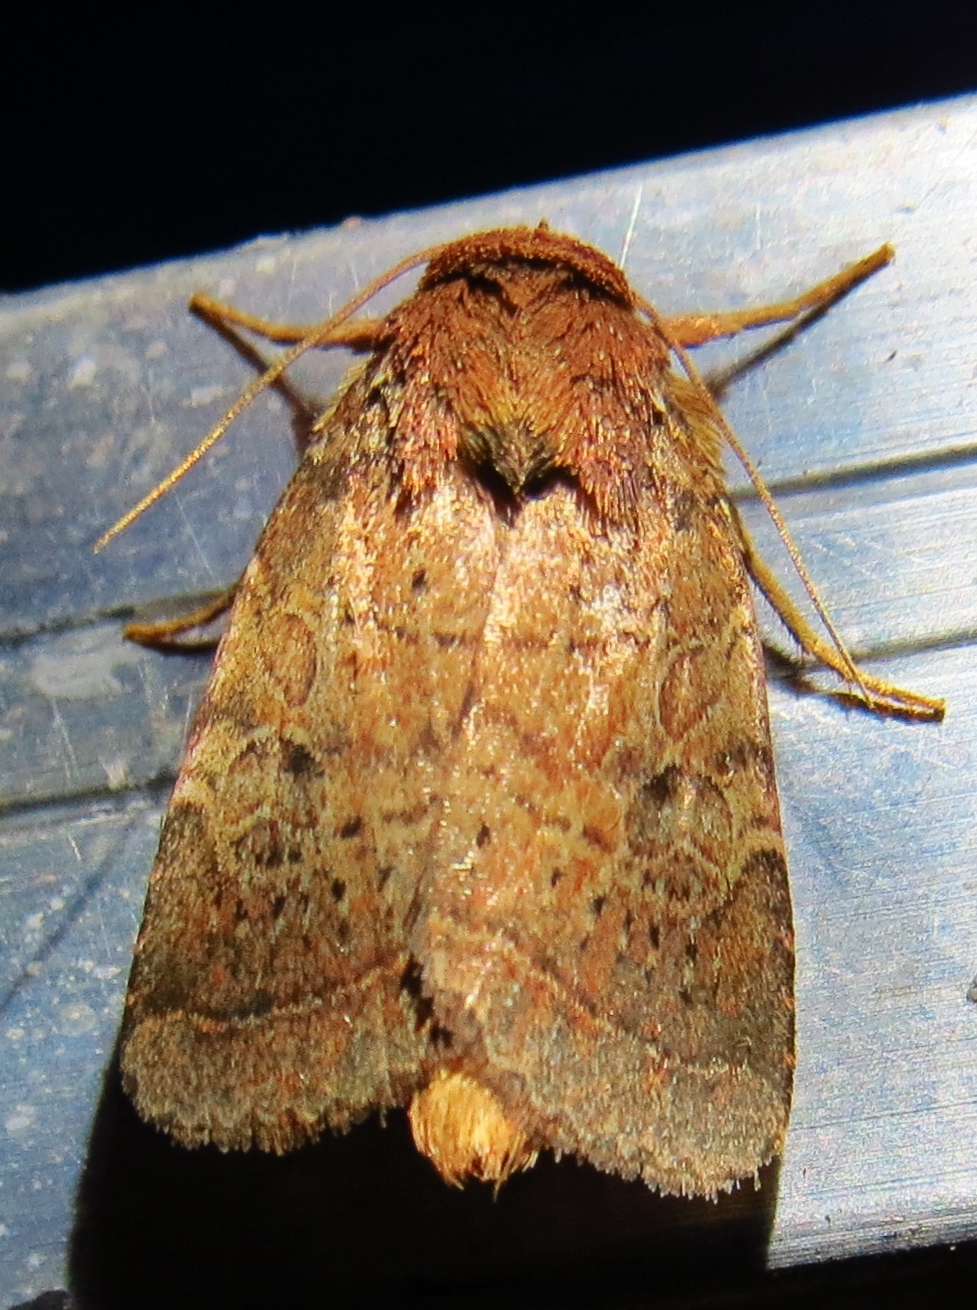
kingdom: Animalia
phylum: Arthropoda
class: Insecta
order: Lepidoptera
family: Noctuidae
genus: Orthodes
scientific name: Orthodes furtiva
